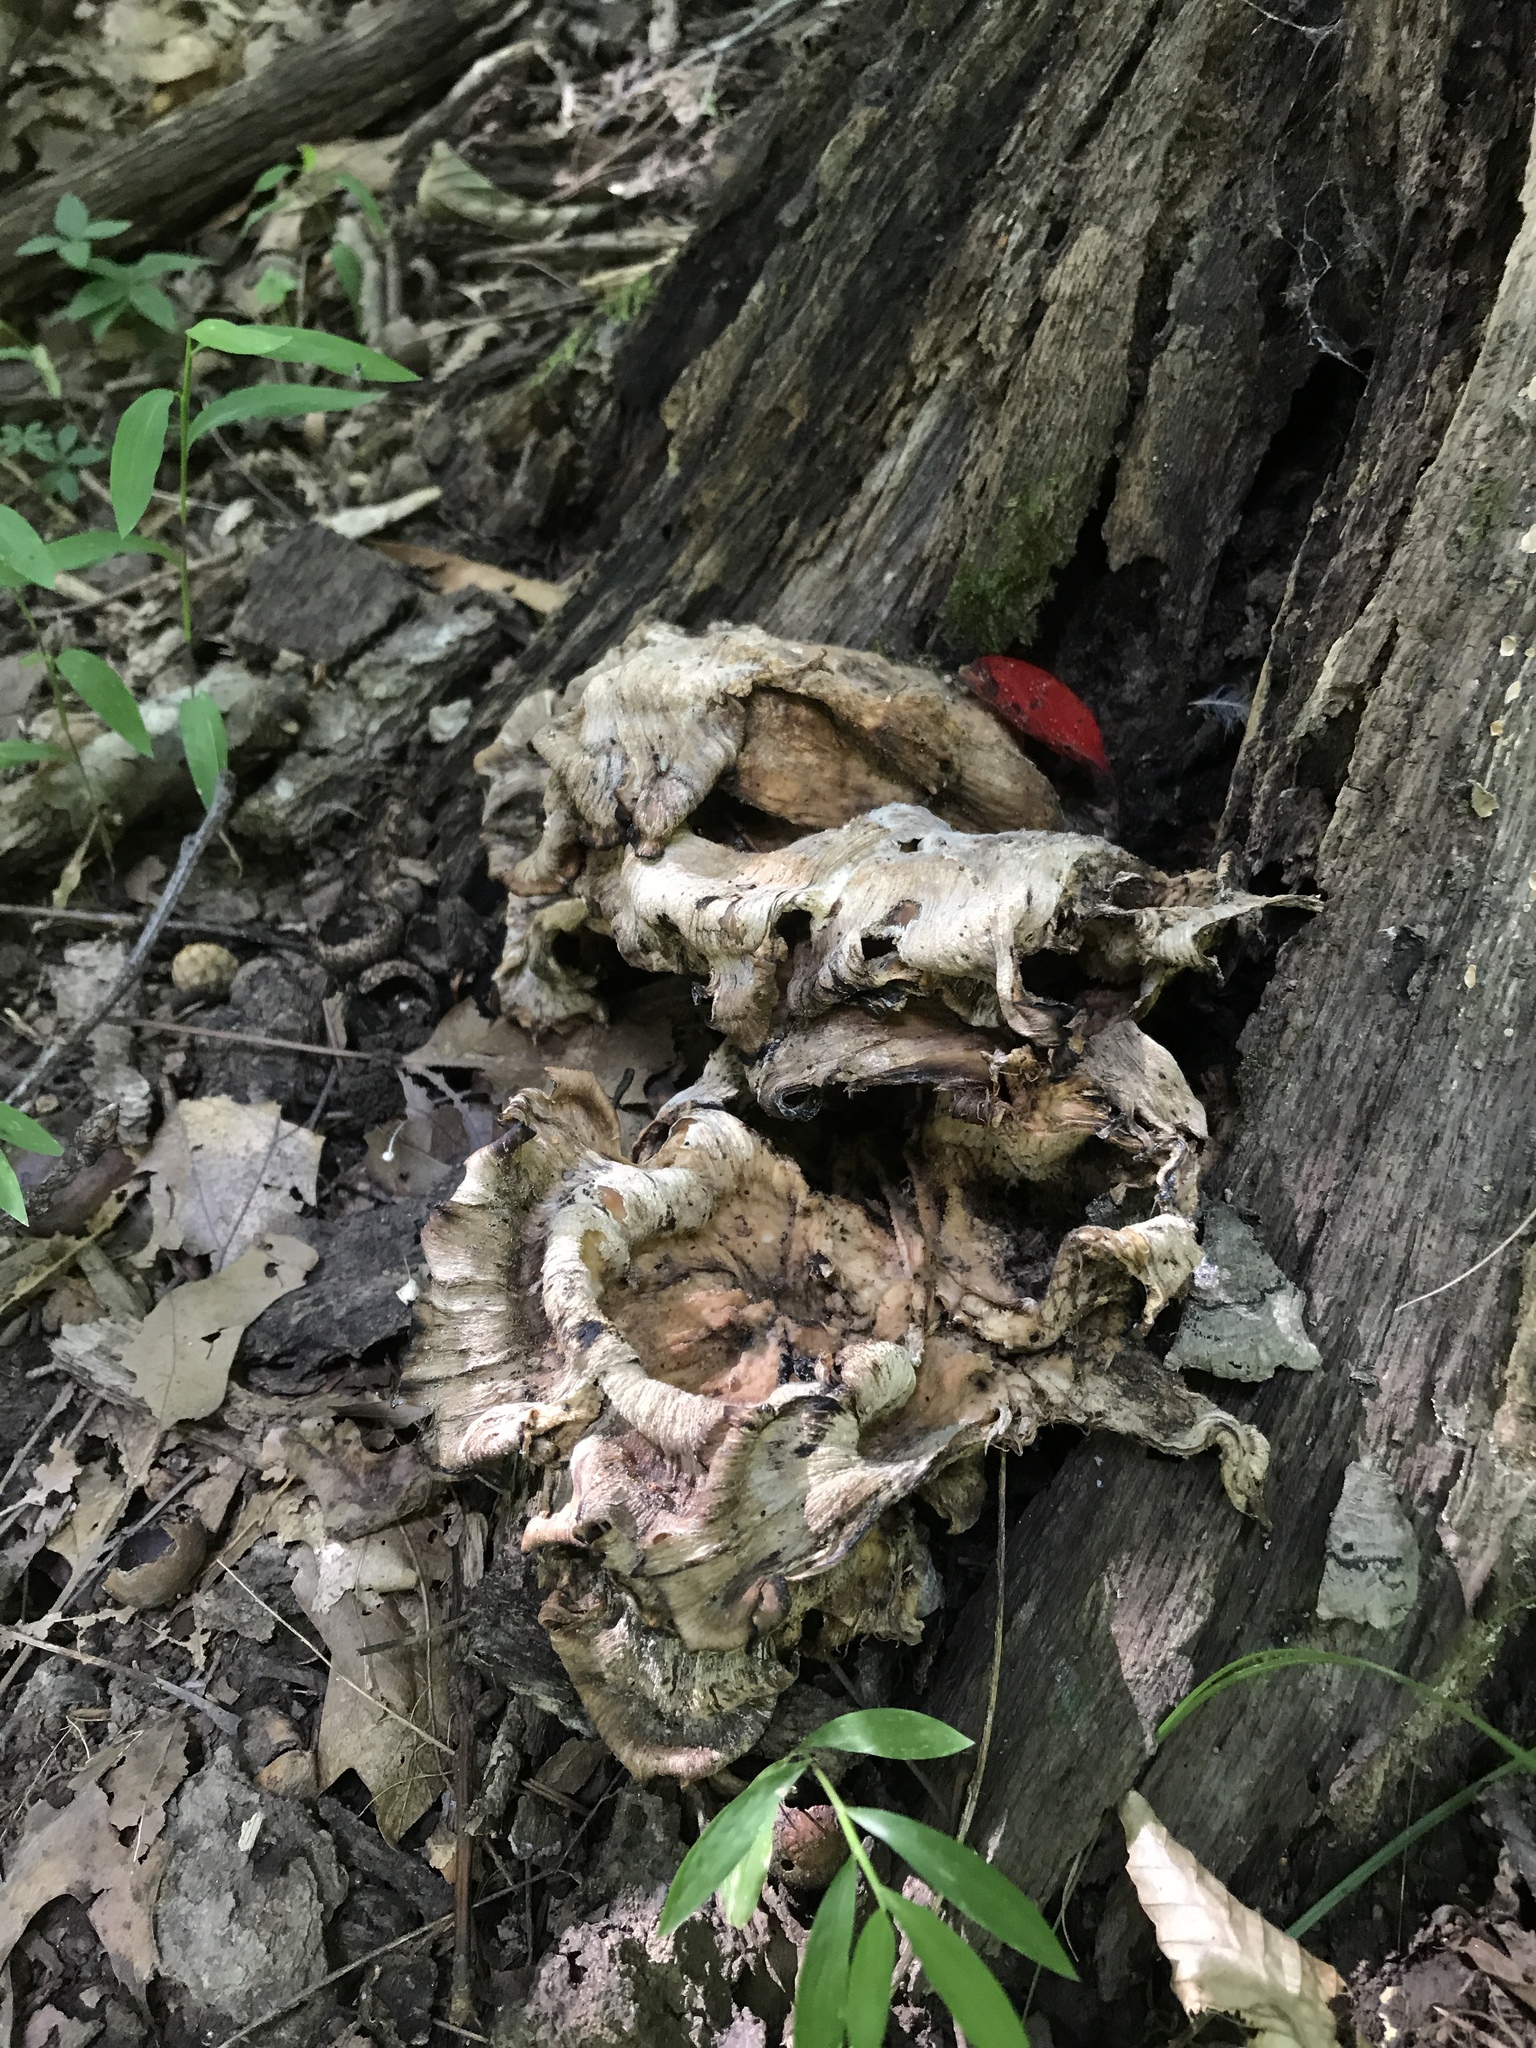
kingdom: Fungi
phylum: Basidiomycota
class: Agaricomycetes
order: Polyporales
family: Meripilaceae
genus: Meripilus
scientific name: Meripilus sumstinei
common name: Black-staining polypore
